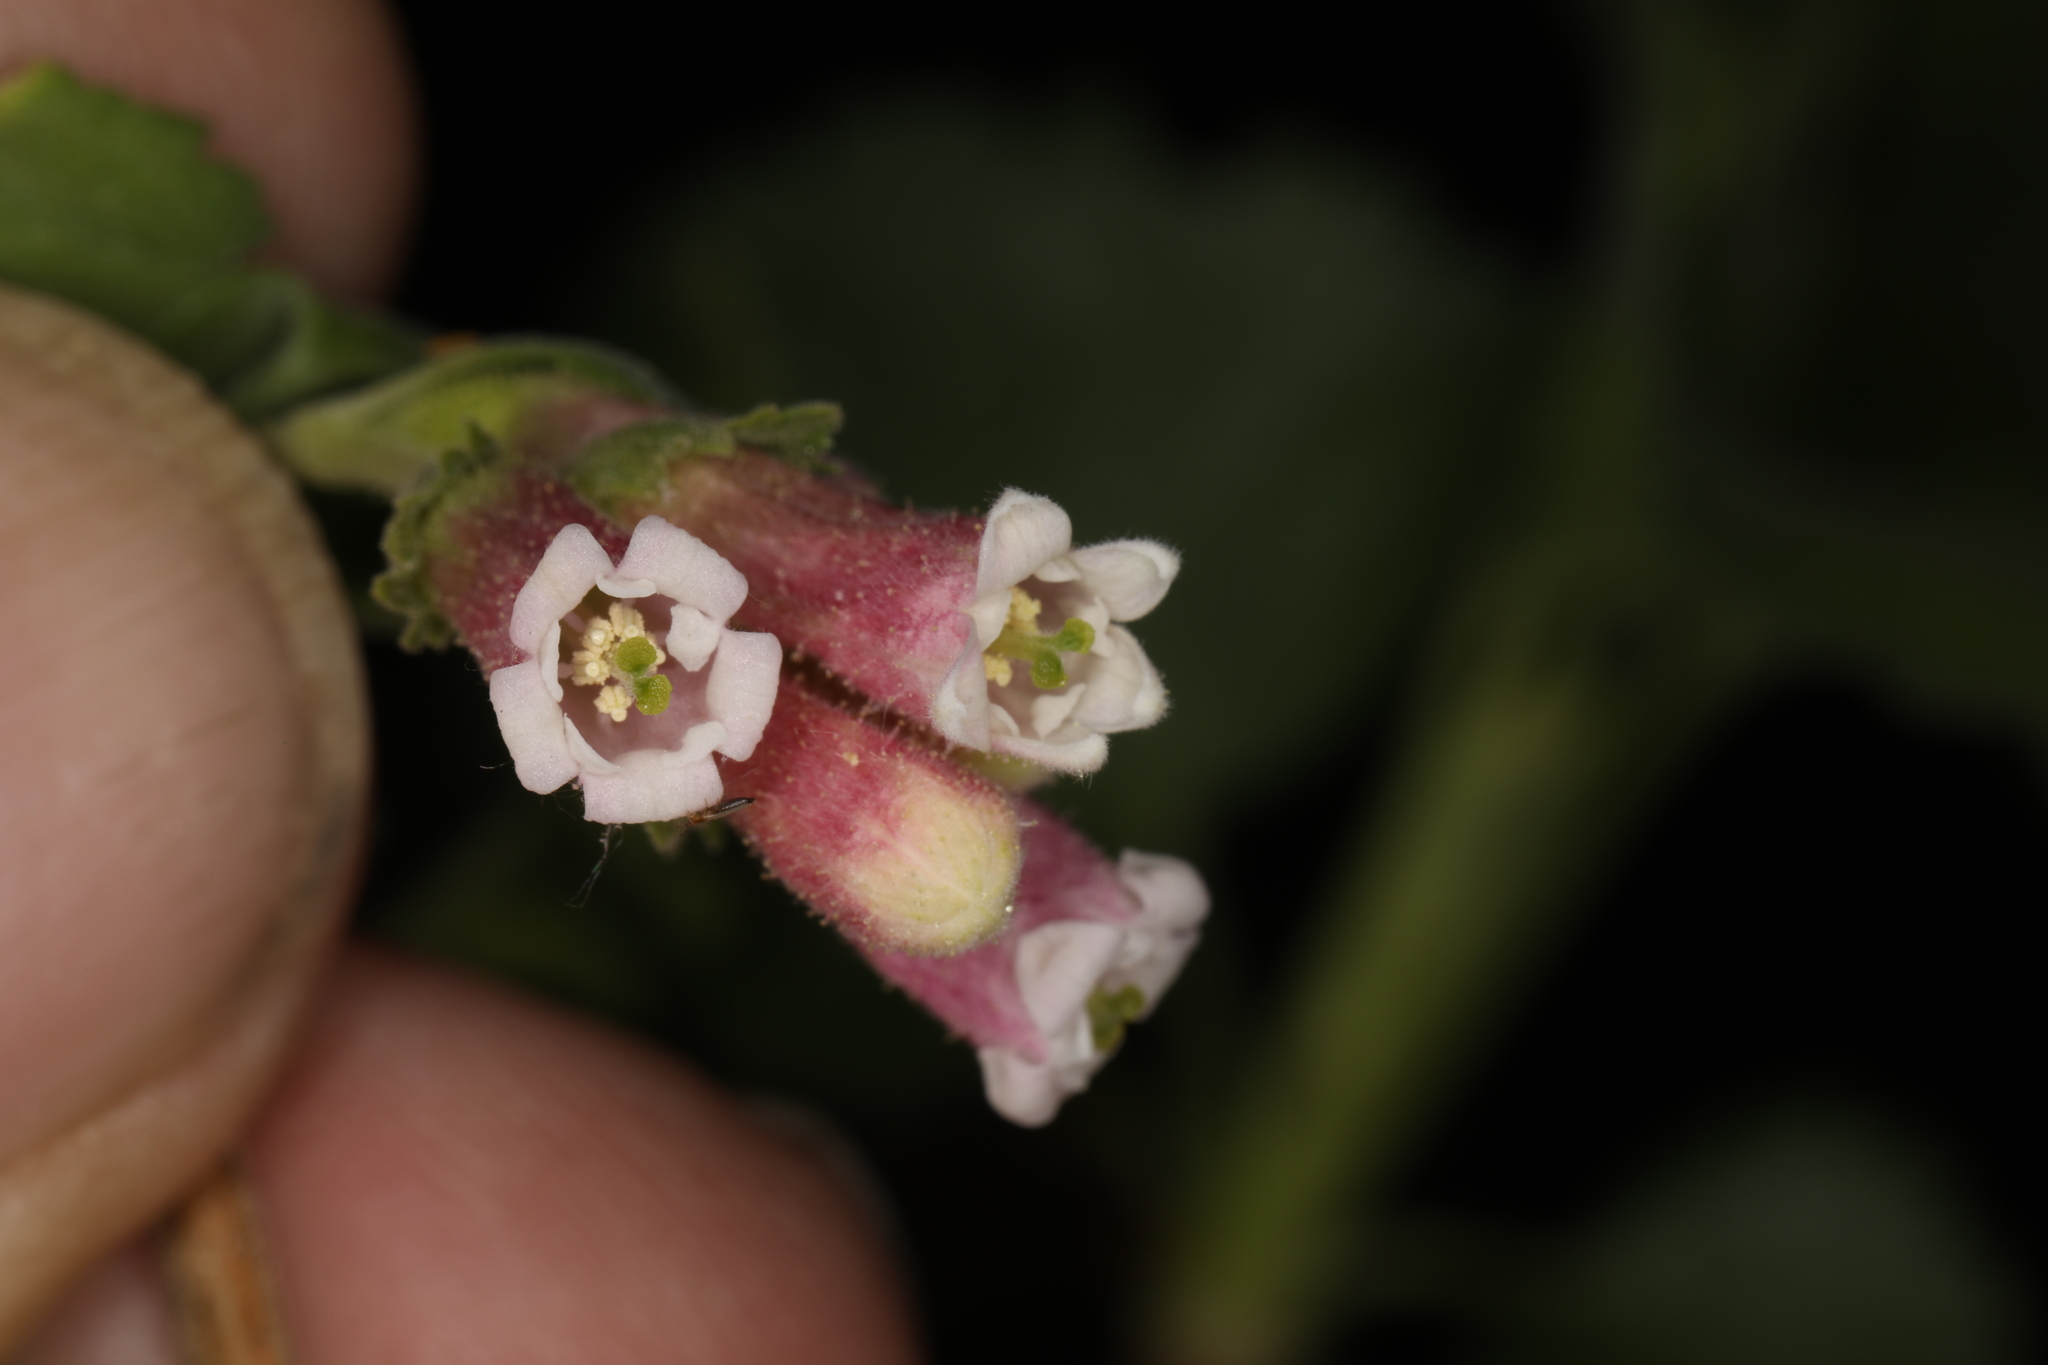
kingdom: Plantae
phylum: Tracheophyta
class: Magnoliopsida
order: Saxifragales
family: Grossulariaceae
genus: Ribes
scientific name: Ribes cereum
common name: Wax currant
